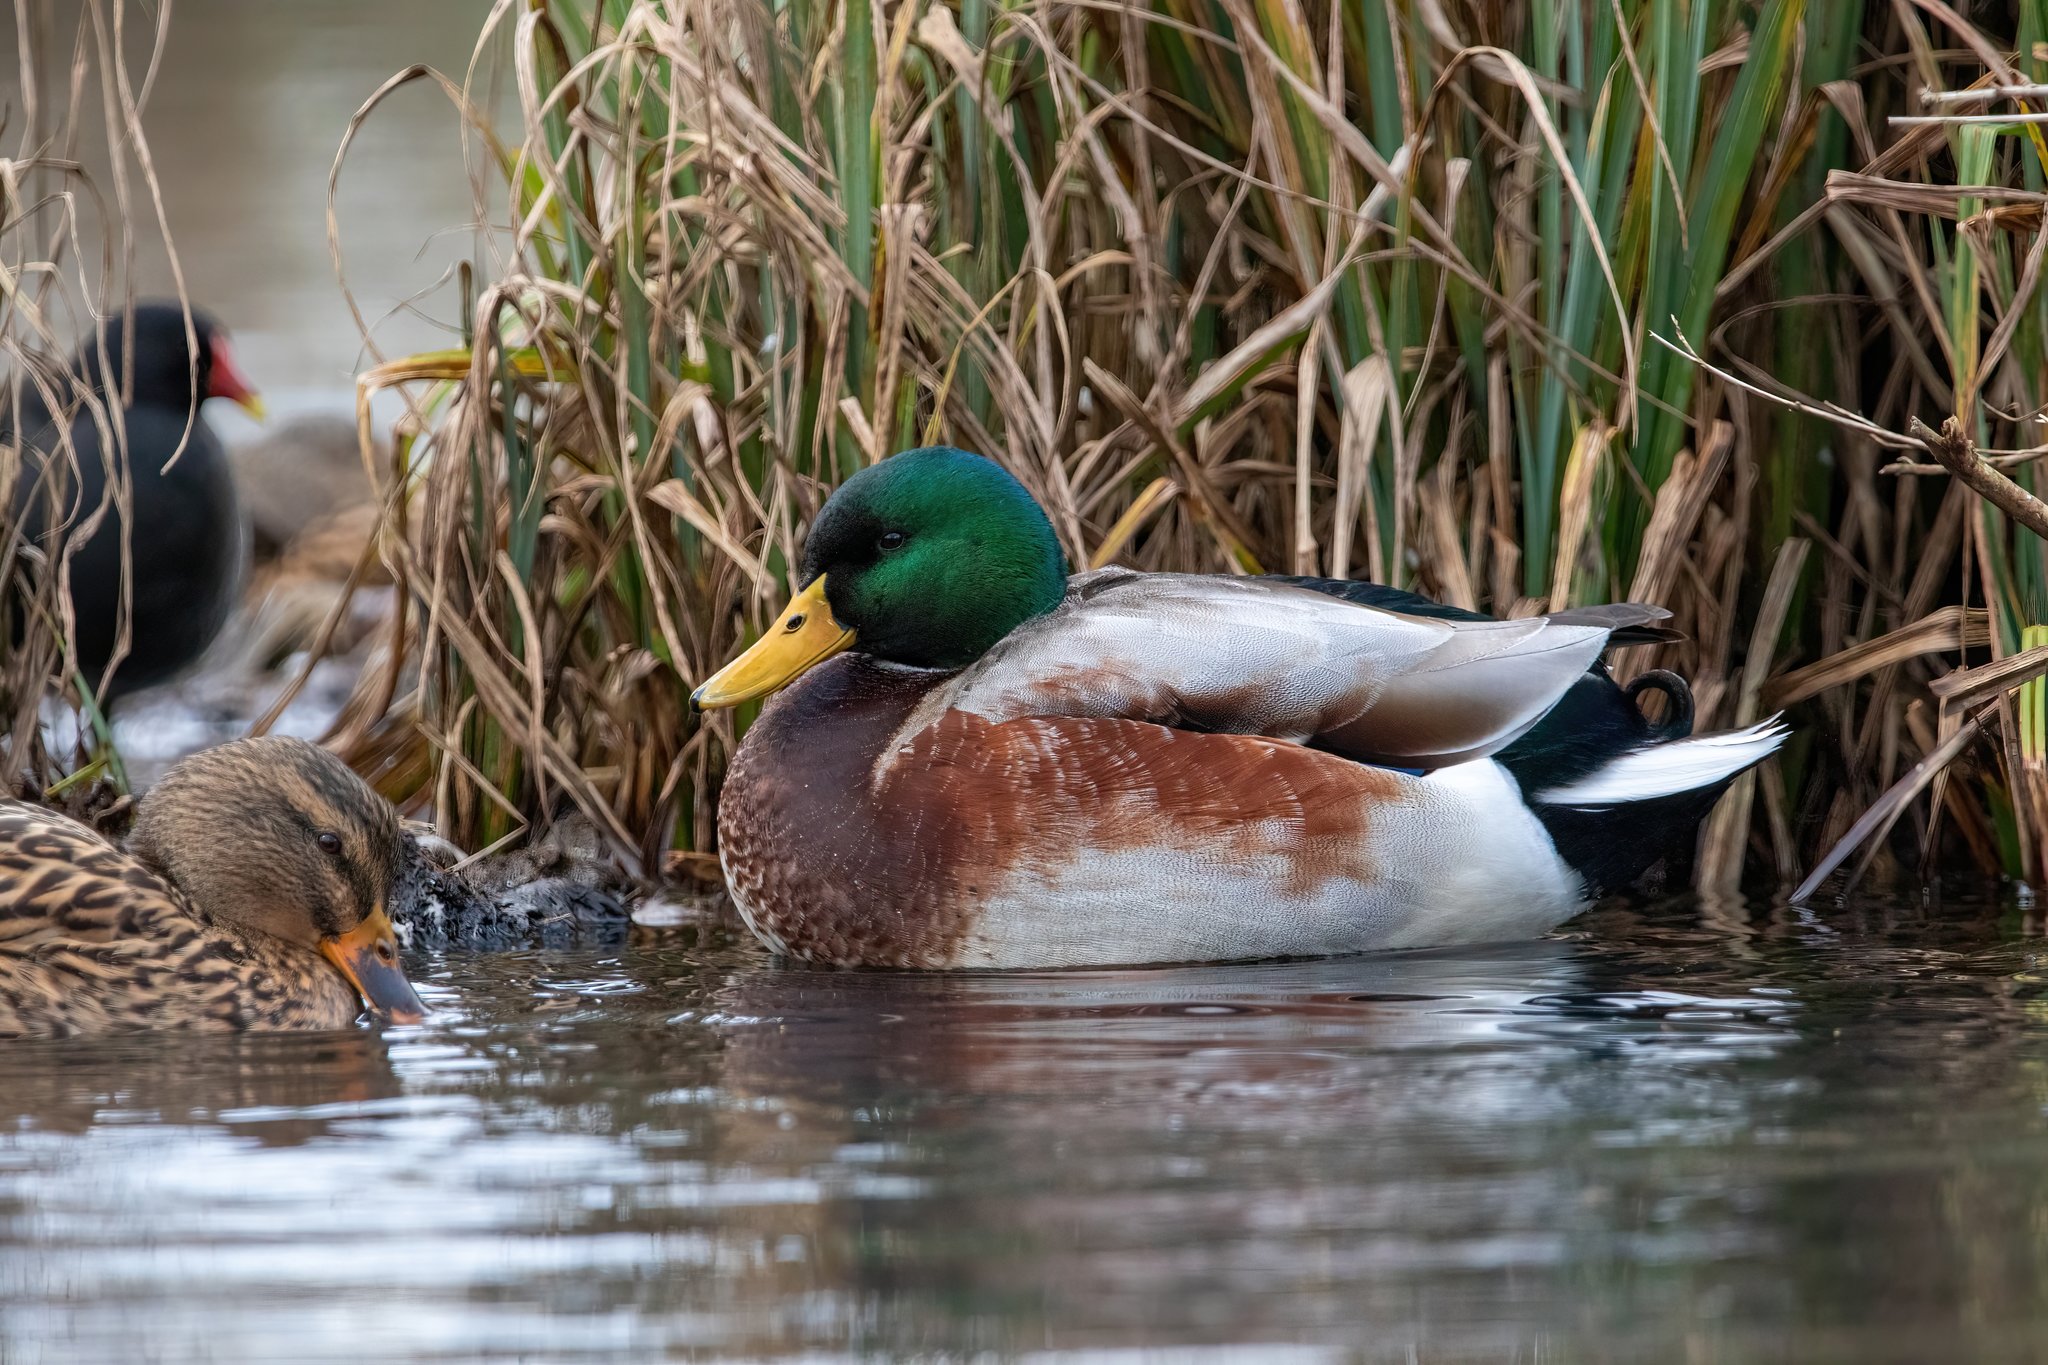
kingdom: Animalia
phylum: Chordata
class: Aves
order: Anseriformes
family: Anatidae
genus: Anas
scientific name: Anas platyrhynchos
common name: Mallard
